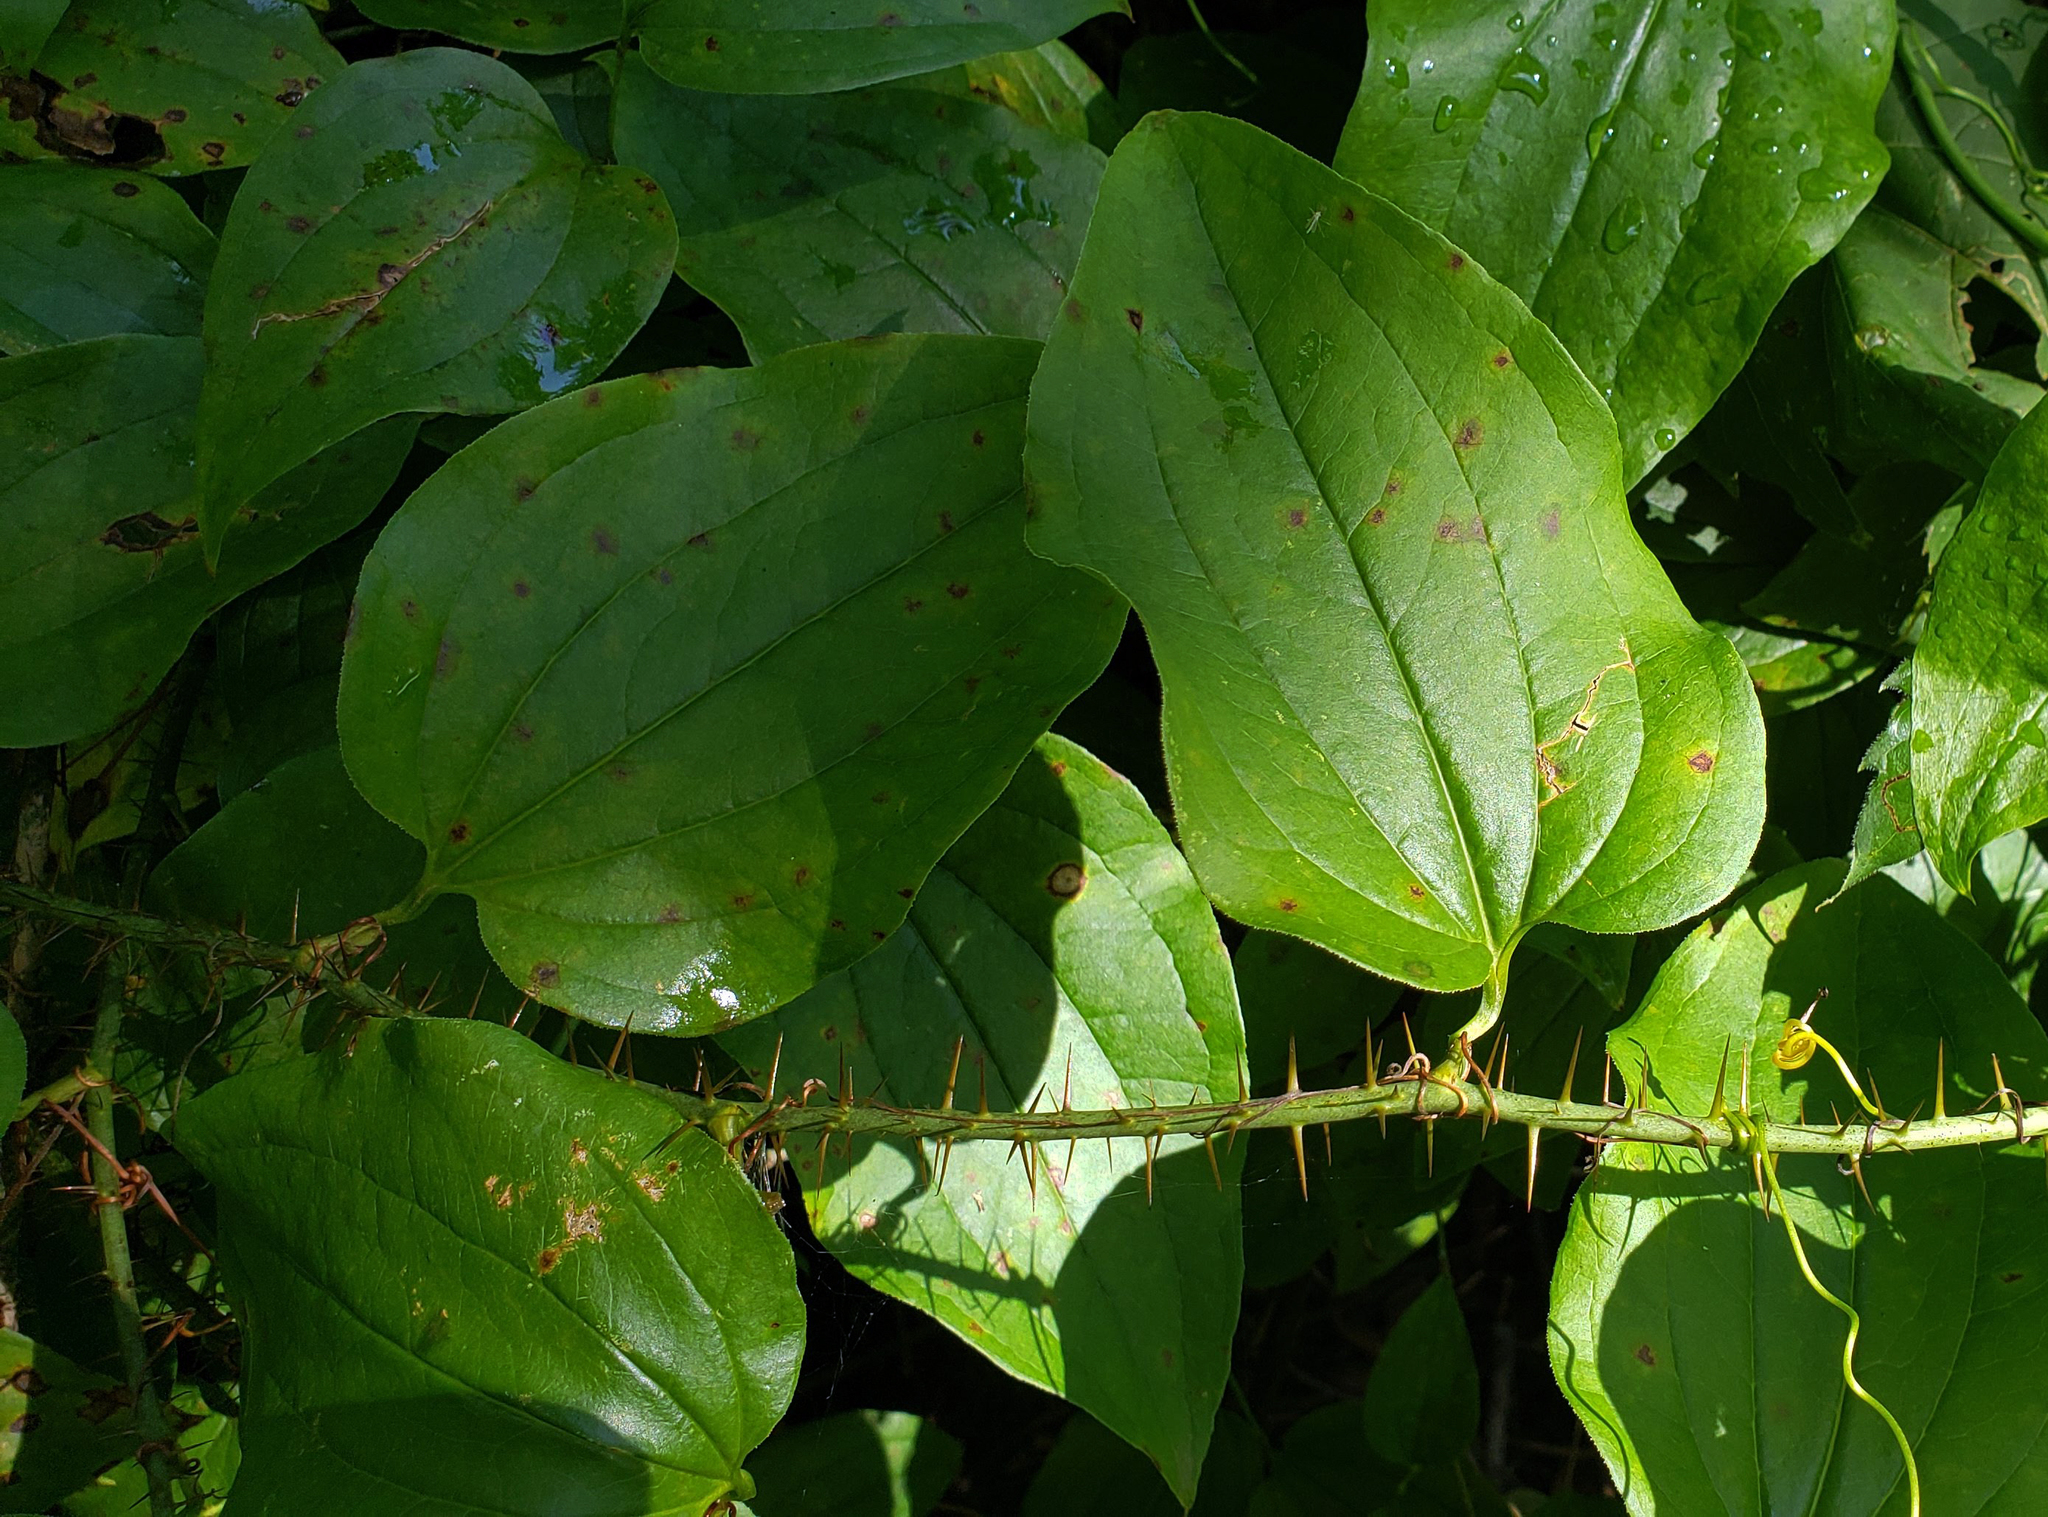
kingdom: Plantae
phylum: Tracheophyta
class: Liliopsida
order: Liliales
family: Smilacaceae
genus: Smilax
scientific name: Smilax tamnoides
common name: Hellfetter
